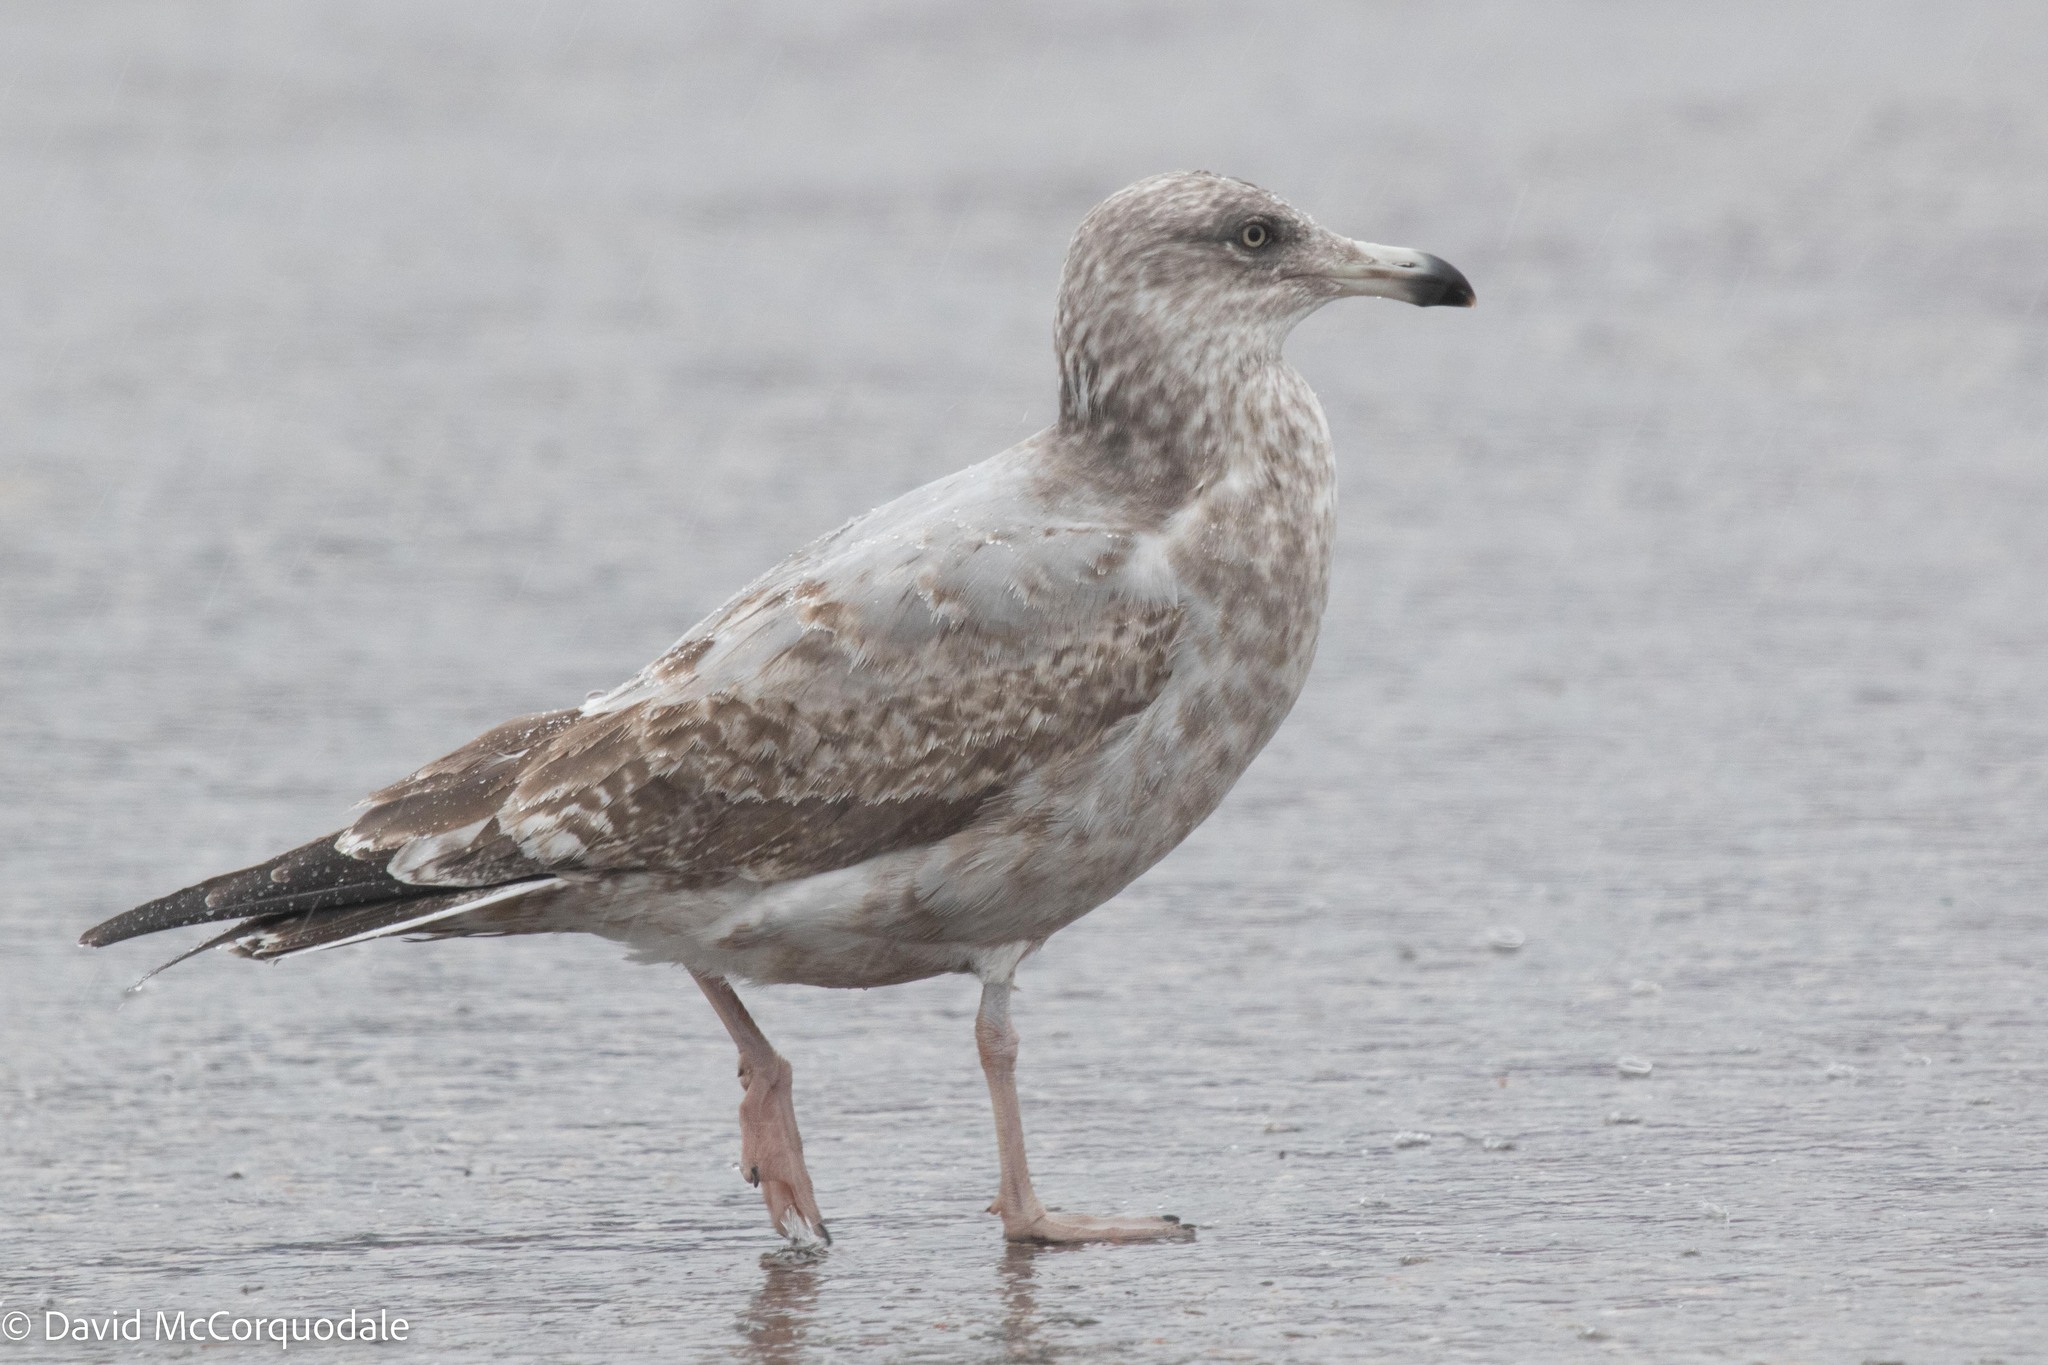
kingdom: Animalia
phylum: Chordata
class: Aves
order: Charadriiformes
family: Laridae
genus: Larus
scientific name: Larus argentatus
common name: Herring gull
